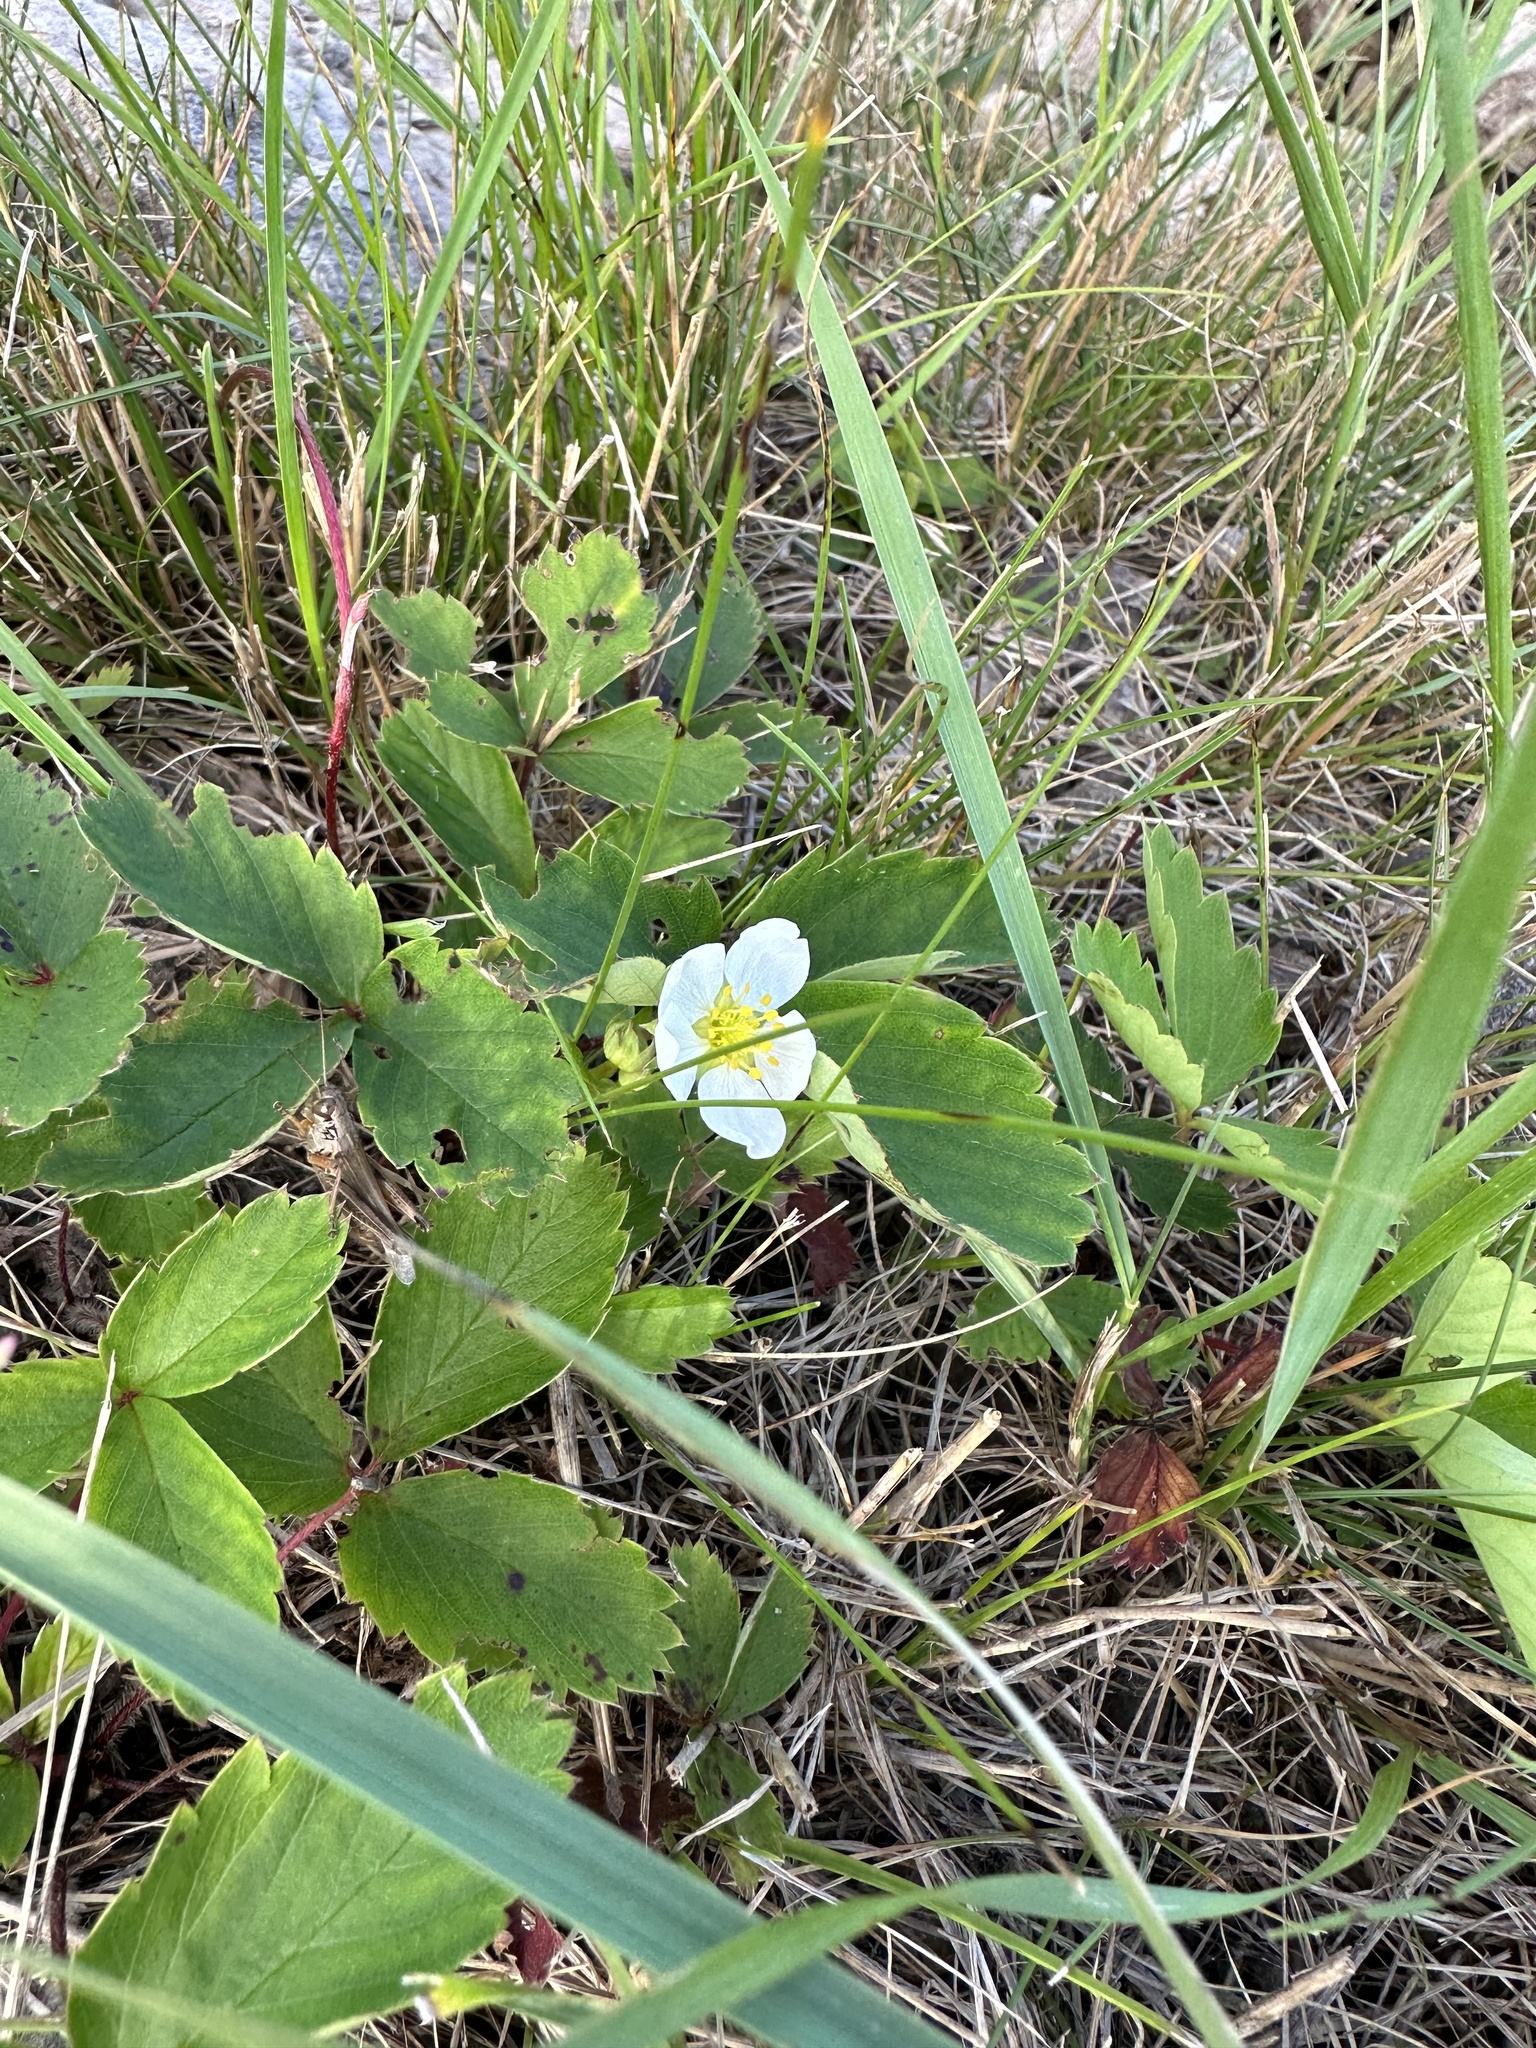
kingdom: Plantae
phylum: Tracheophyta
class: Magnoliopsida
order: Rosales
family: Rosaceae
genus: Fragaria
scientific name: Fragaria virginiana
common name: Thickleaved wild strawberry
